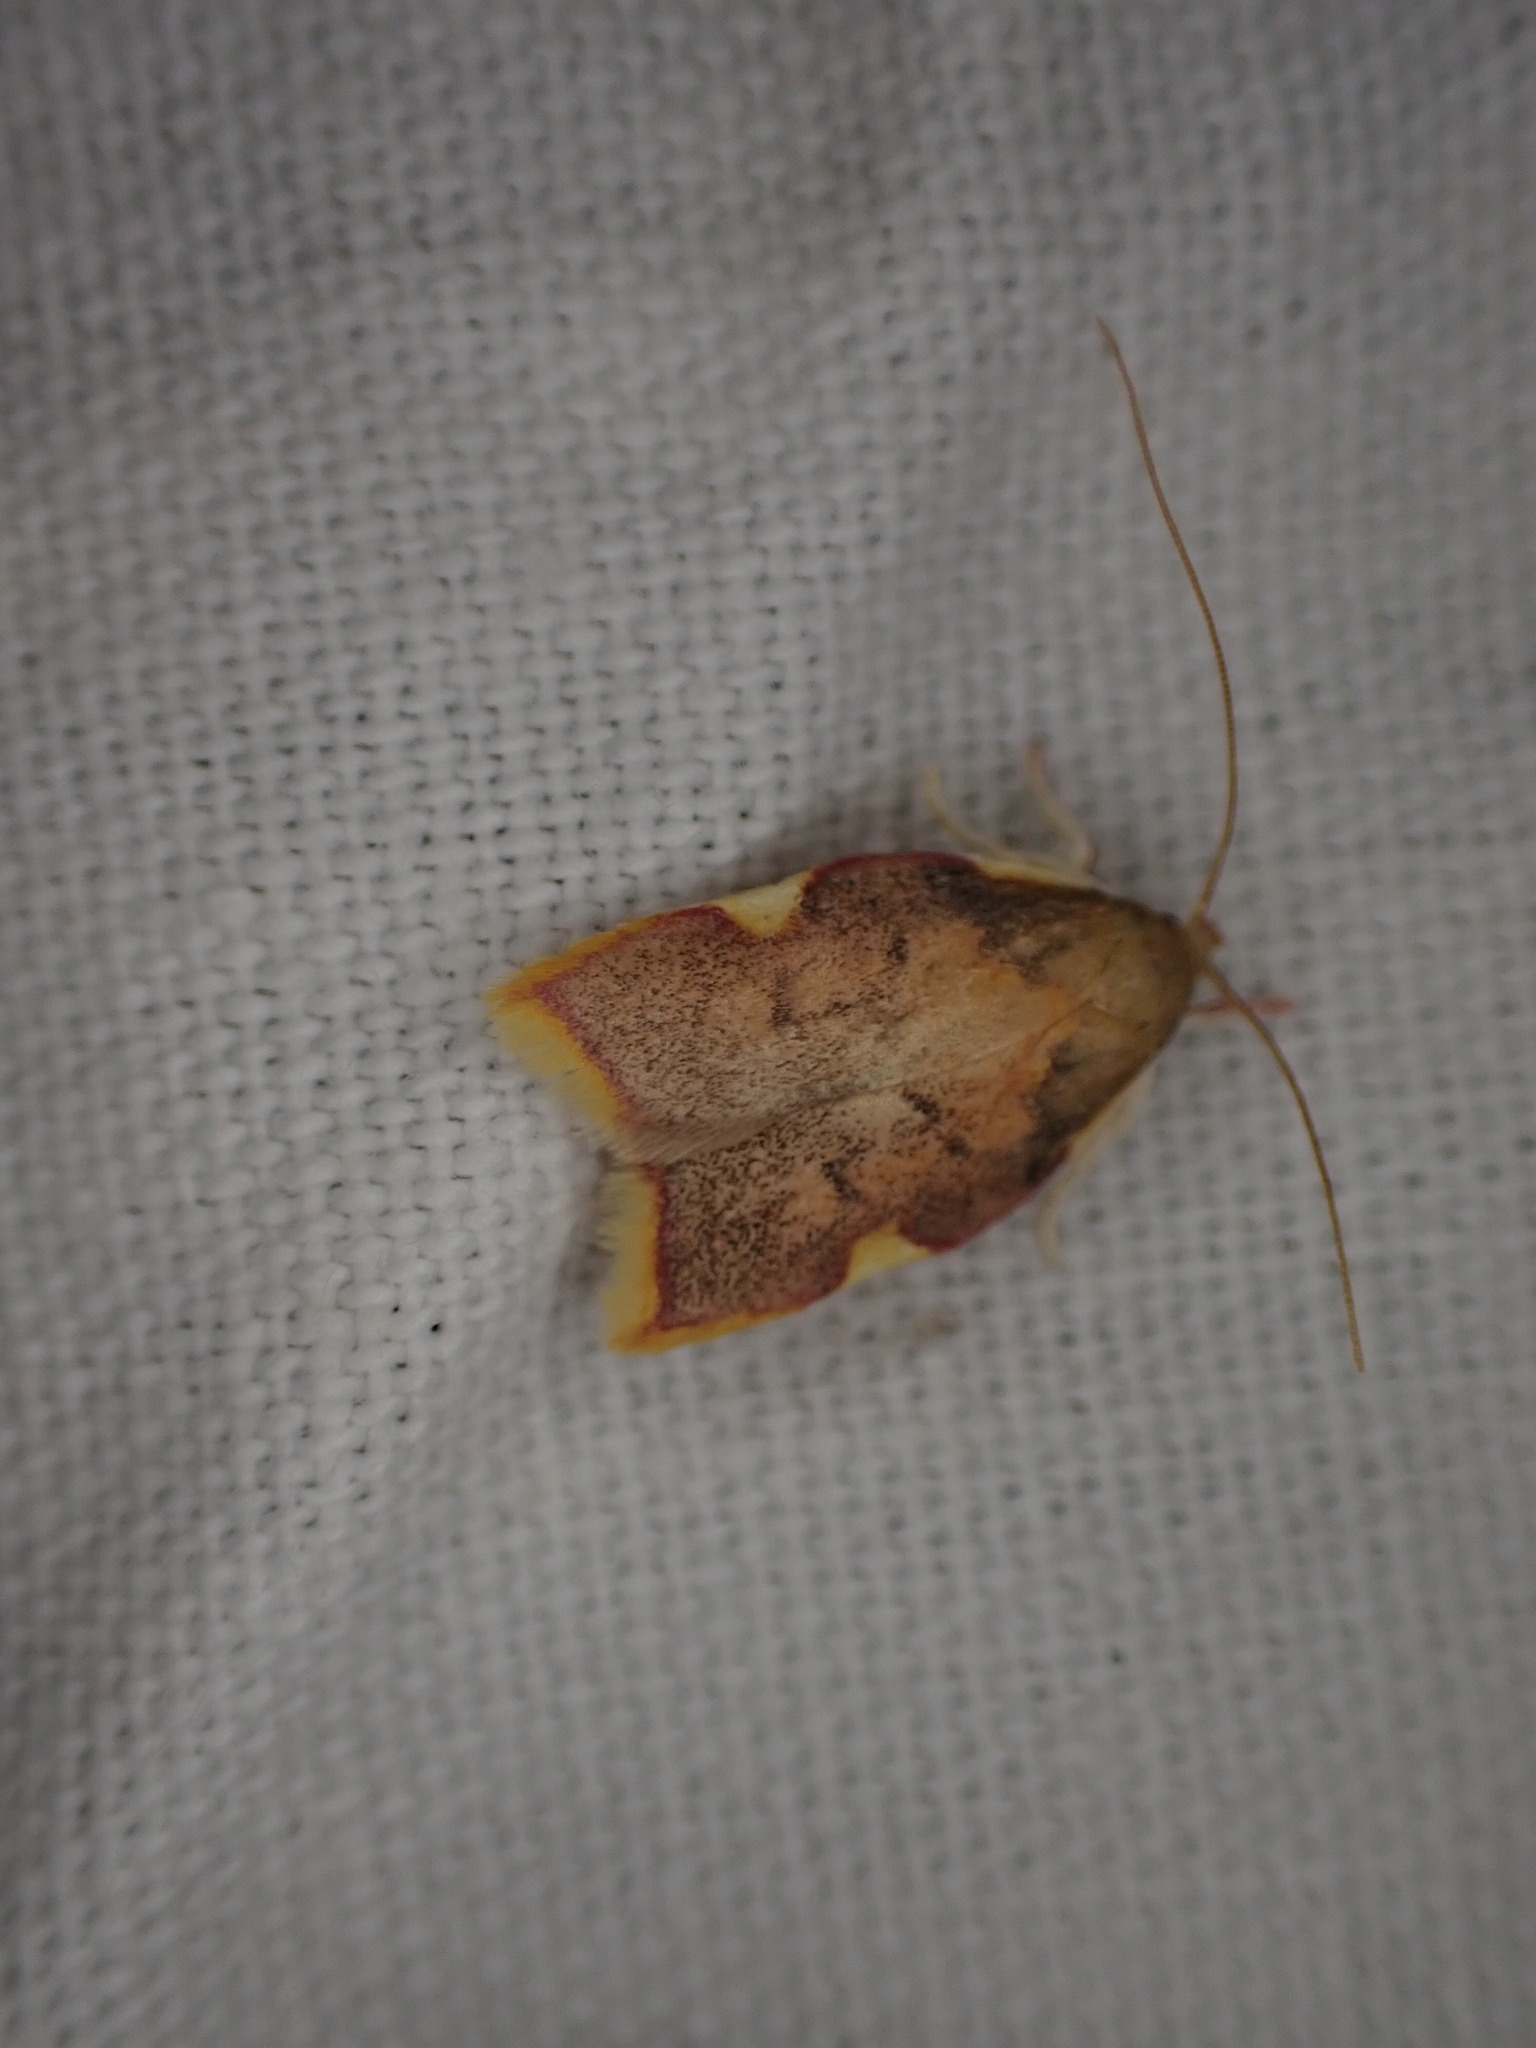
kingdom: Animalia
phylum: Arthropoda
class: Insecta
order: Lepidoptera
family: Peleopodidae
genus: Carcina
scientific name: Carcina quercana
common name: Moth
